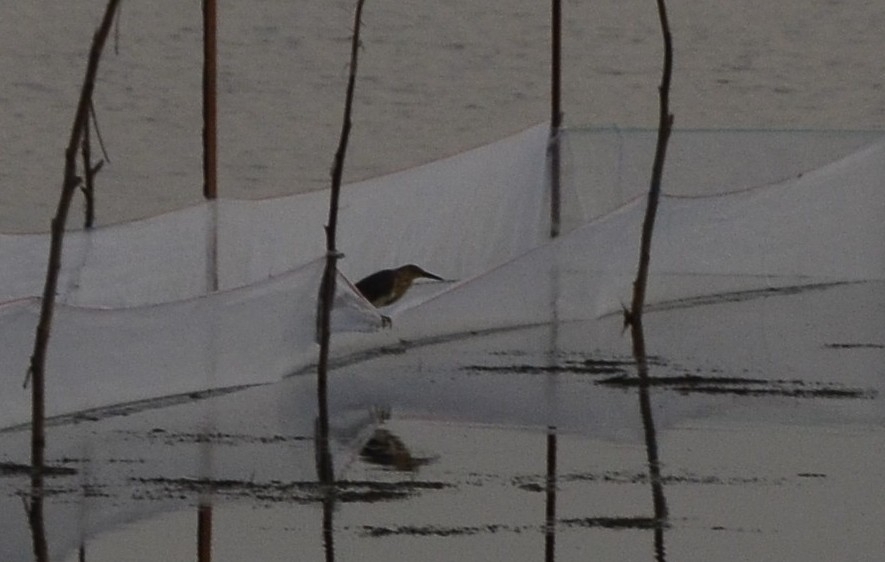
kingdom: Animalia
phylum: Chordata
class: Aves
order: Pelecaniformes
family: Ardeidae
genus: Ardeola
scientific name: Ardeola grayii
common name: Indian pond heron
